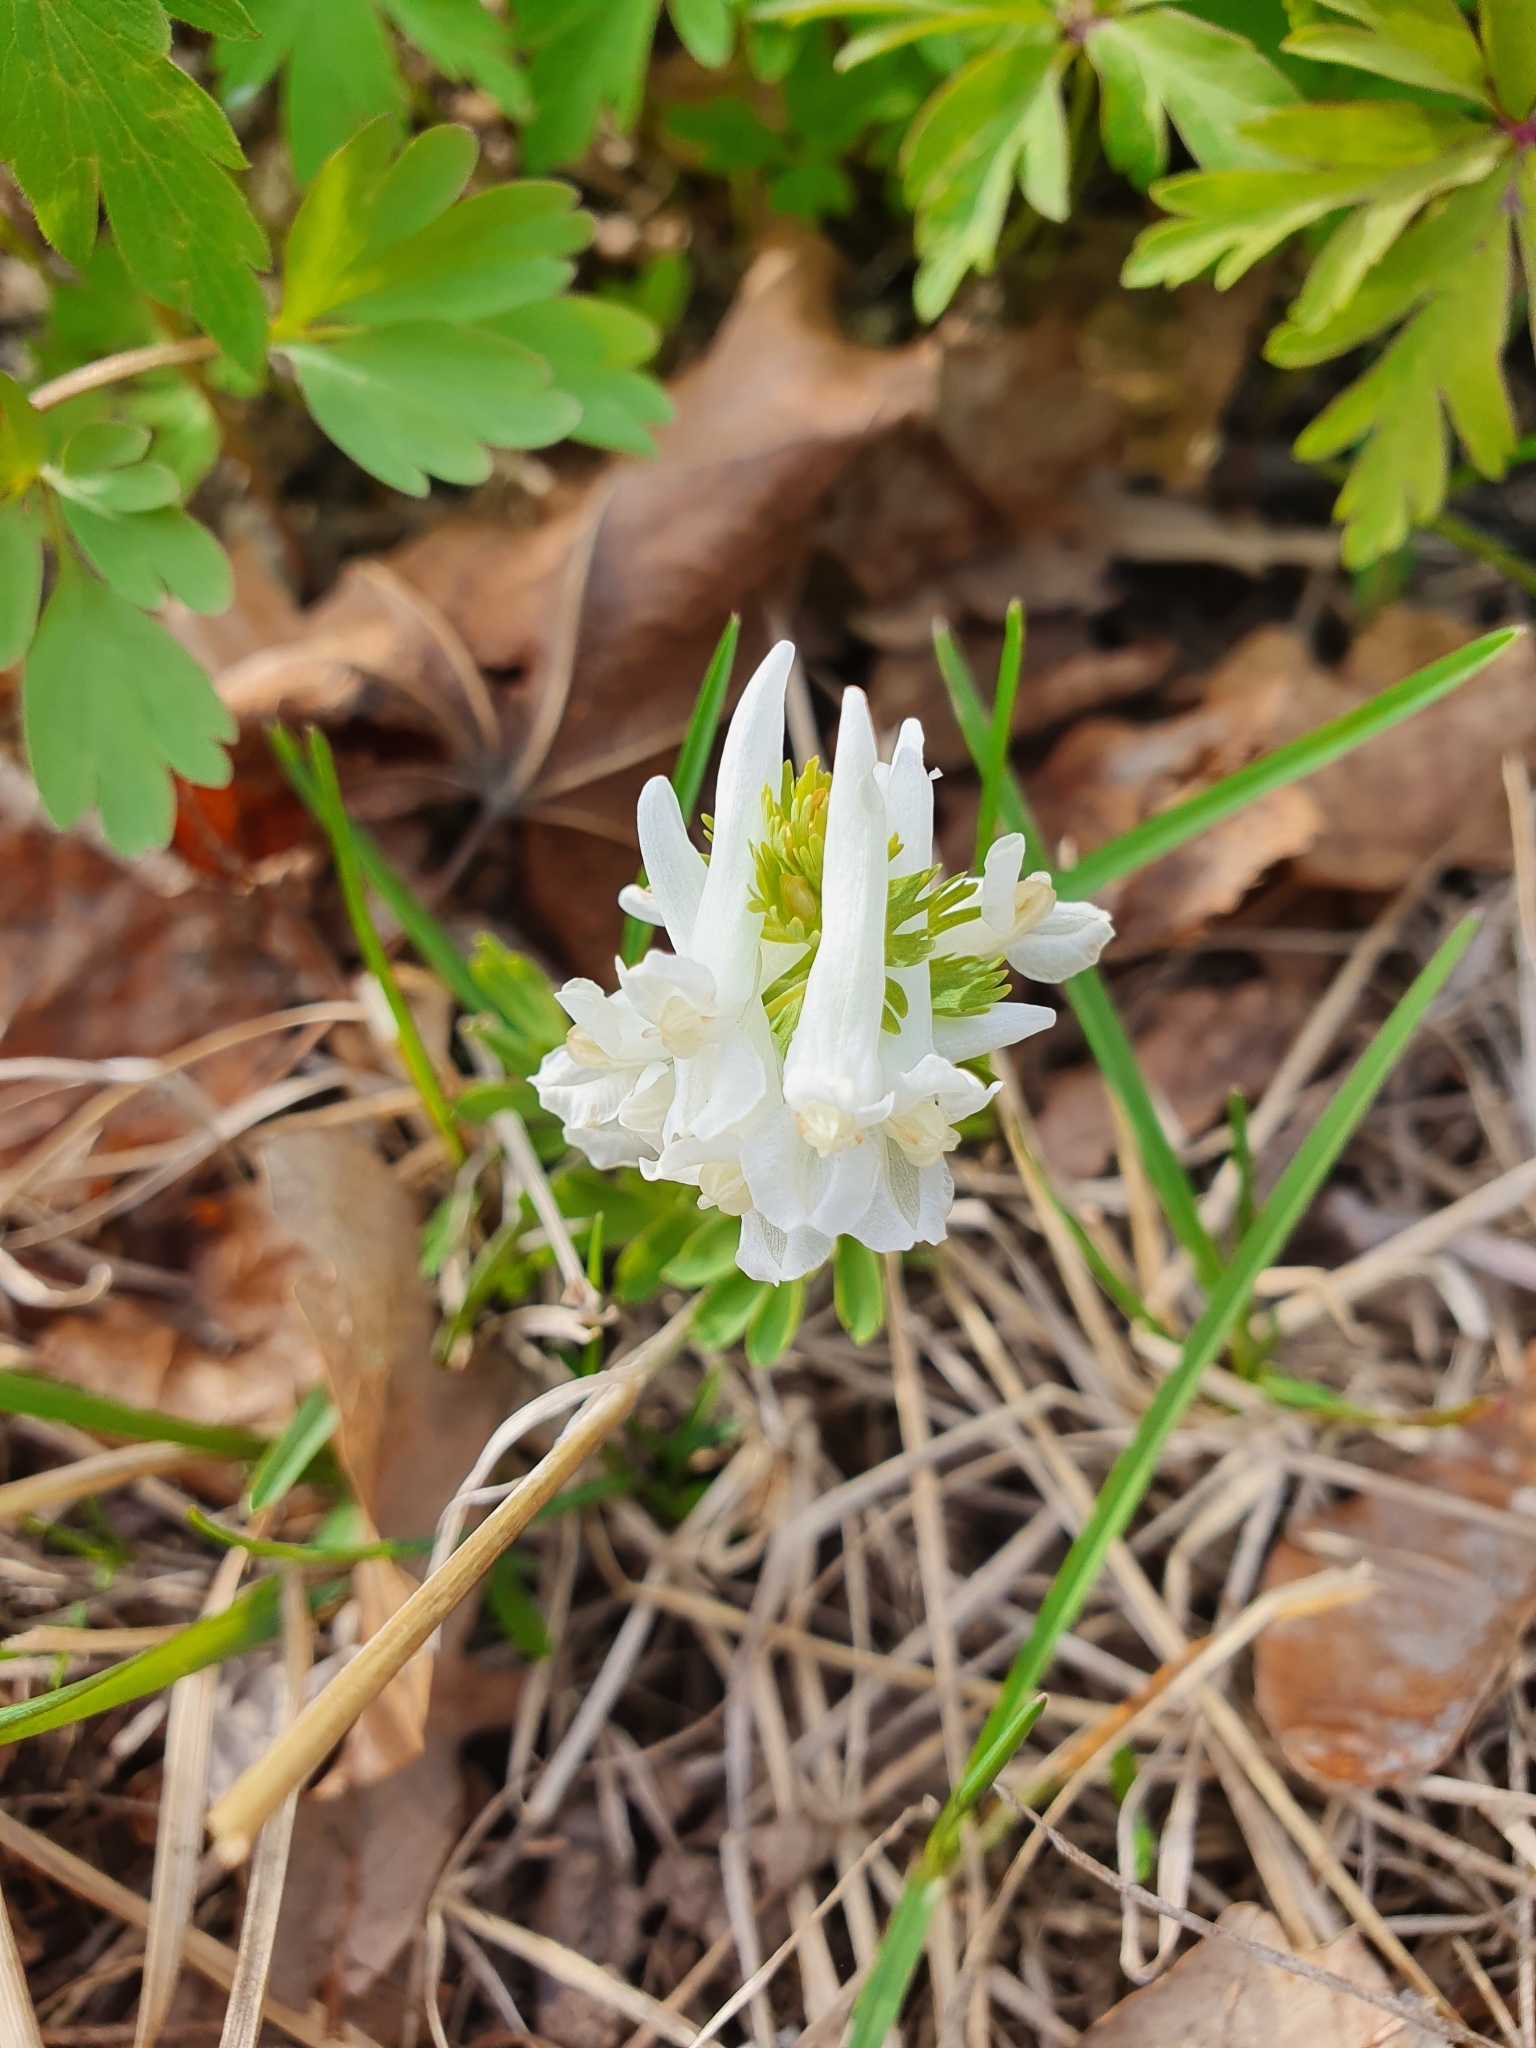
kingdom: Plantae
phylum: Tracheophyta
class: Magnoliopsida
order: Ranunculales
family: Papaveraceae
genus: Corydalis
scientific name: Corydalis solida
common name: Bird-in-a-bush
